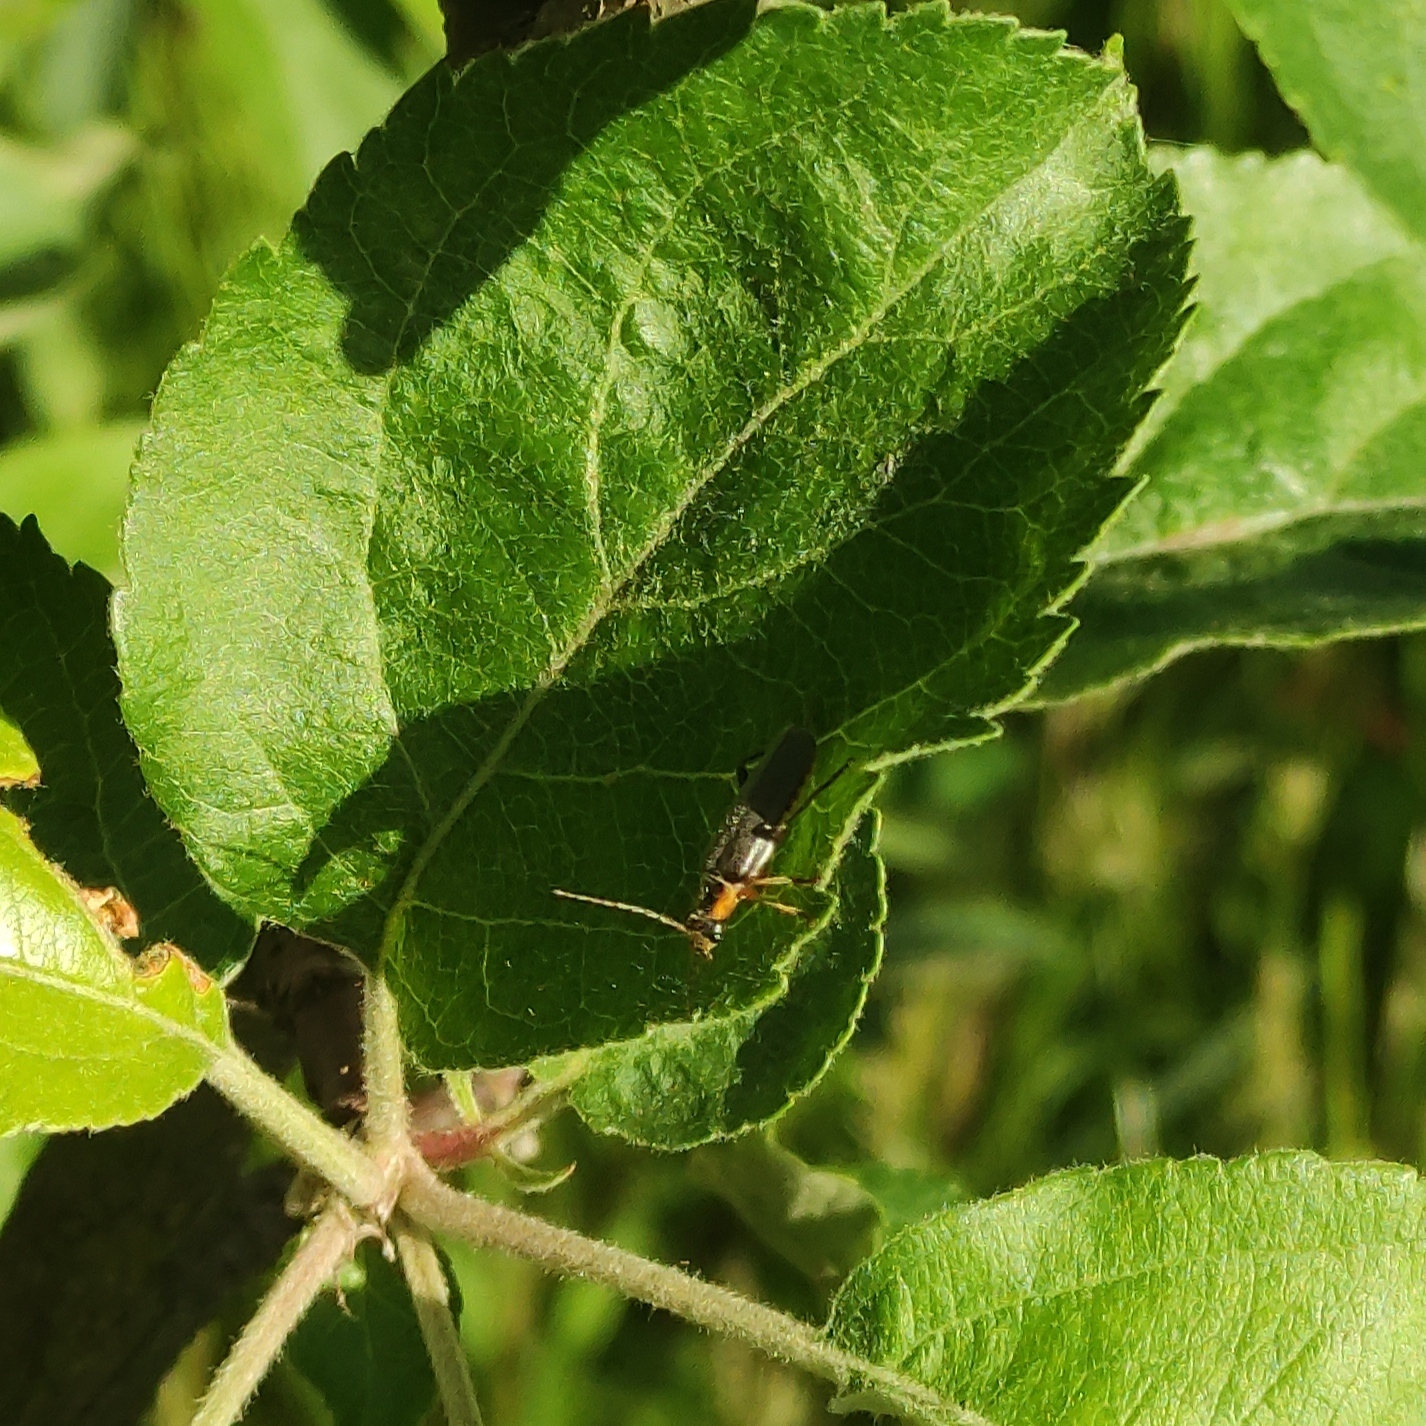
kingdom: Animalia
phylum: Arthropoda
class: Insecta
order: Coleoptera
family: Cantharidae
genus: Cantharis
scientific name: Cantharis nigricans
